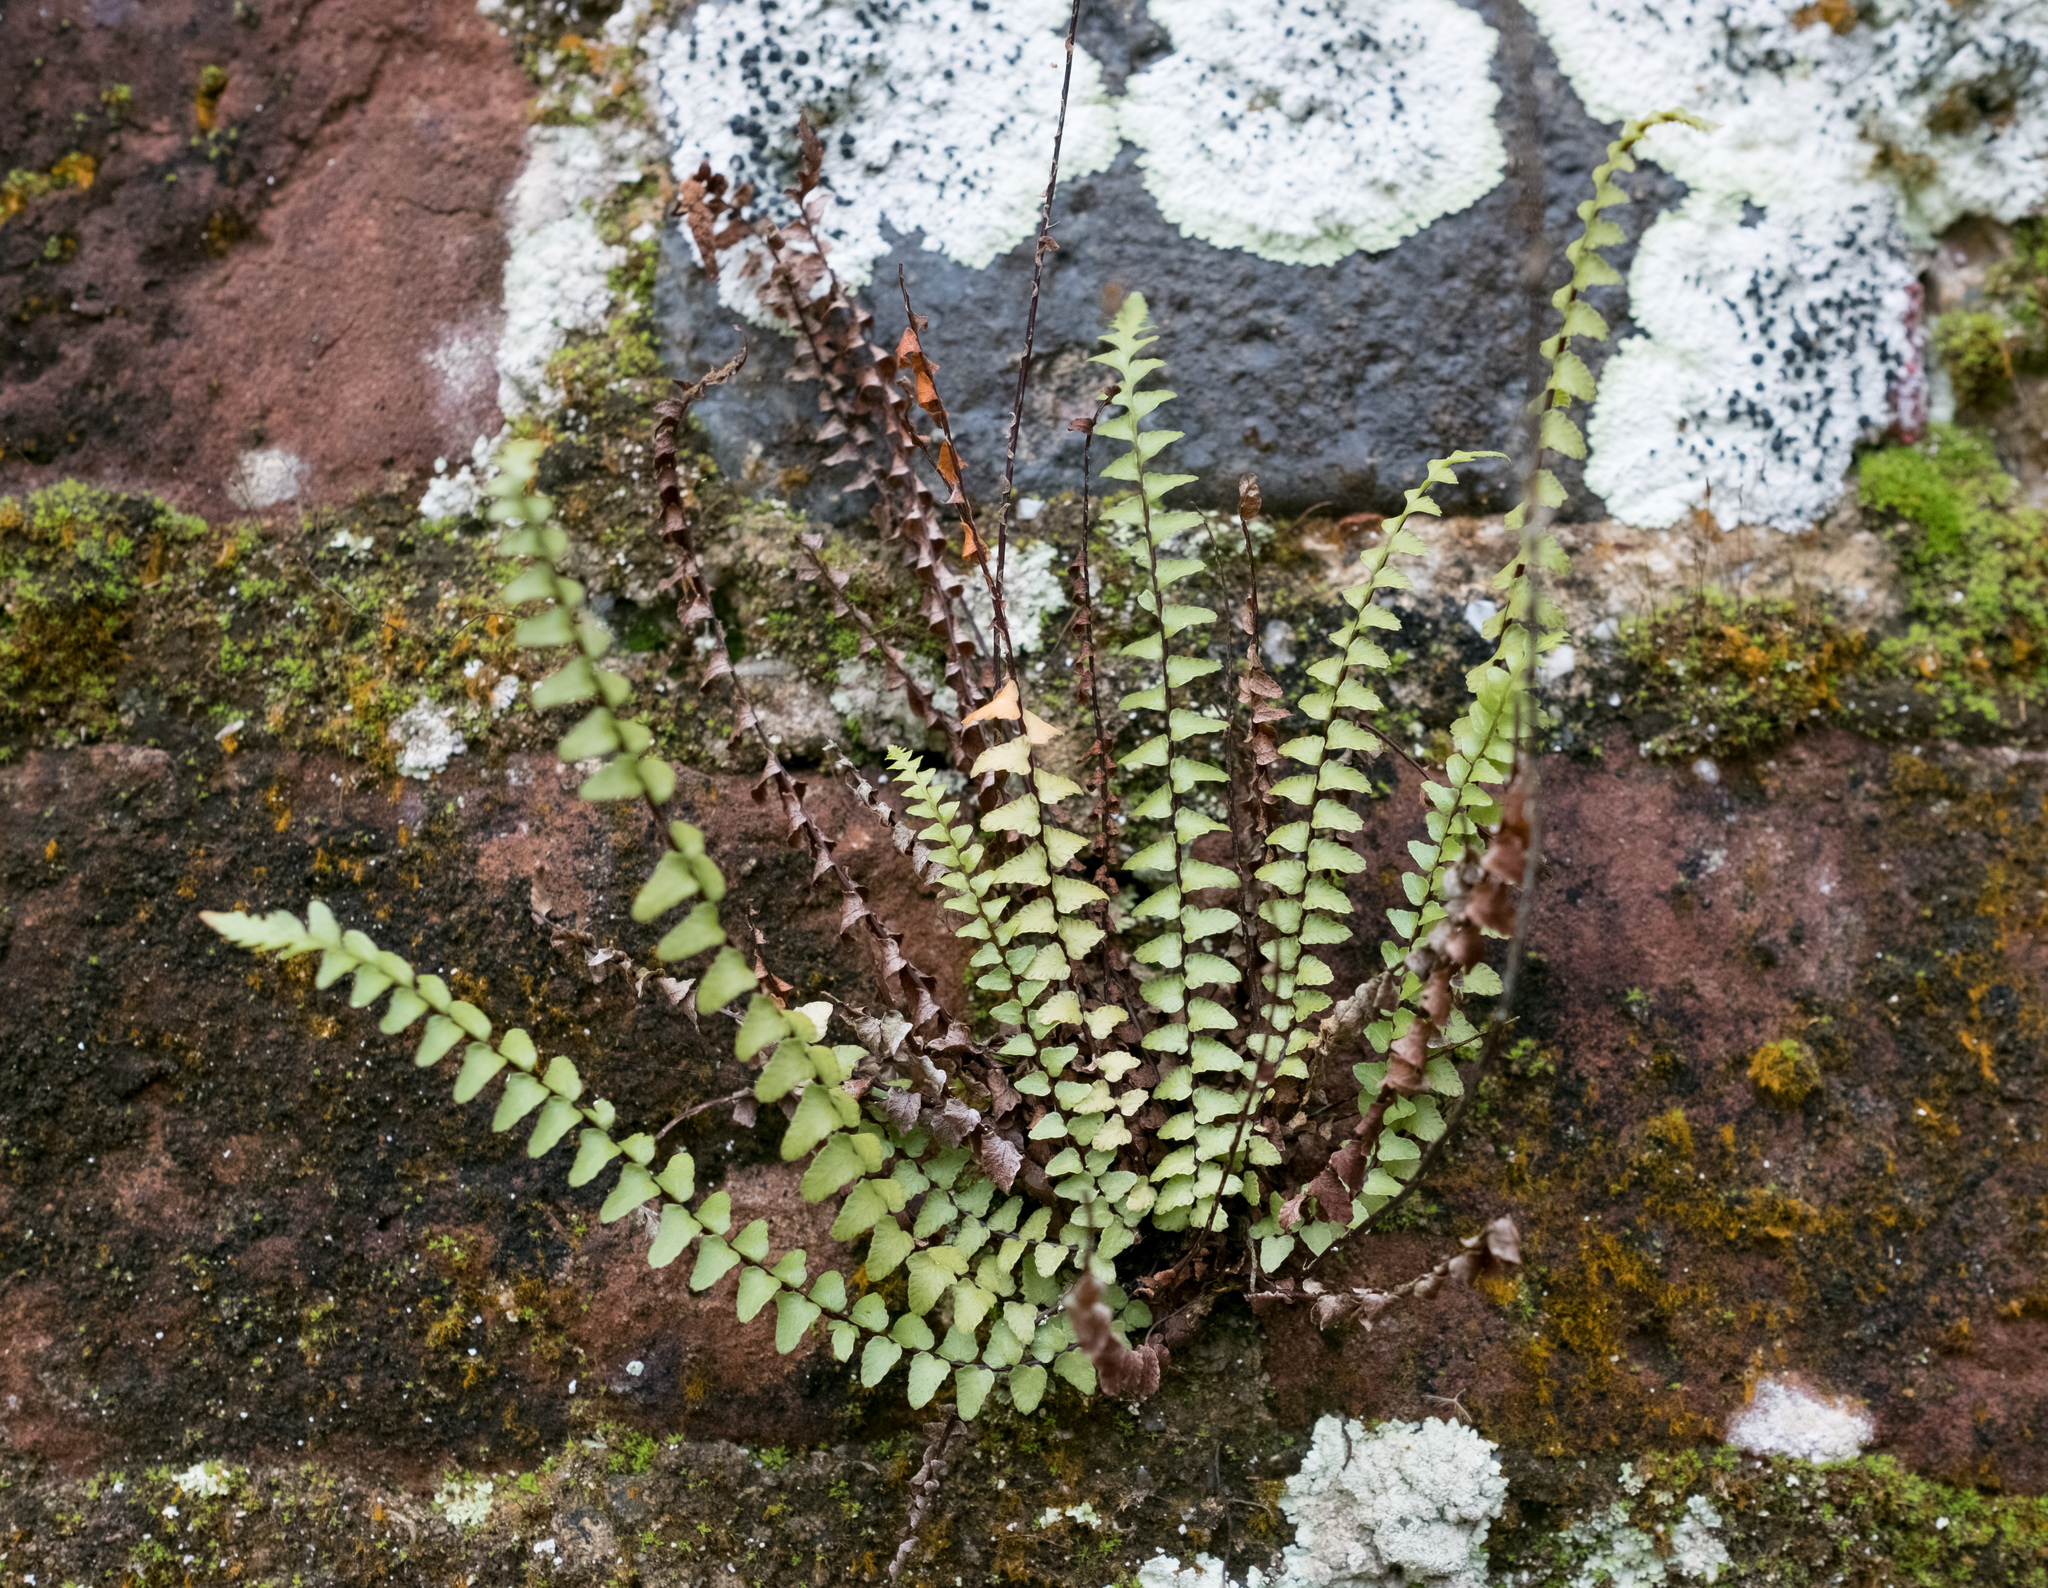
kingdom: Plantae
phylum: Tracheophyta
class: Polypodiopsida
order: Polypodiales
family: Aspleniaceae
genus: Asplenium
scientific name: Asplenium platyneuron
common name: Ebony spleenwort
